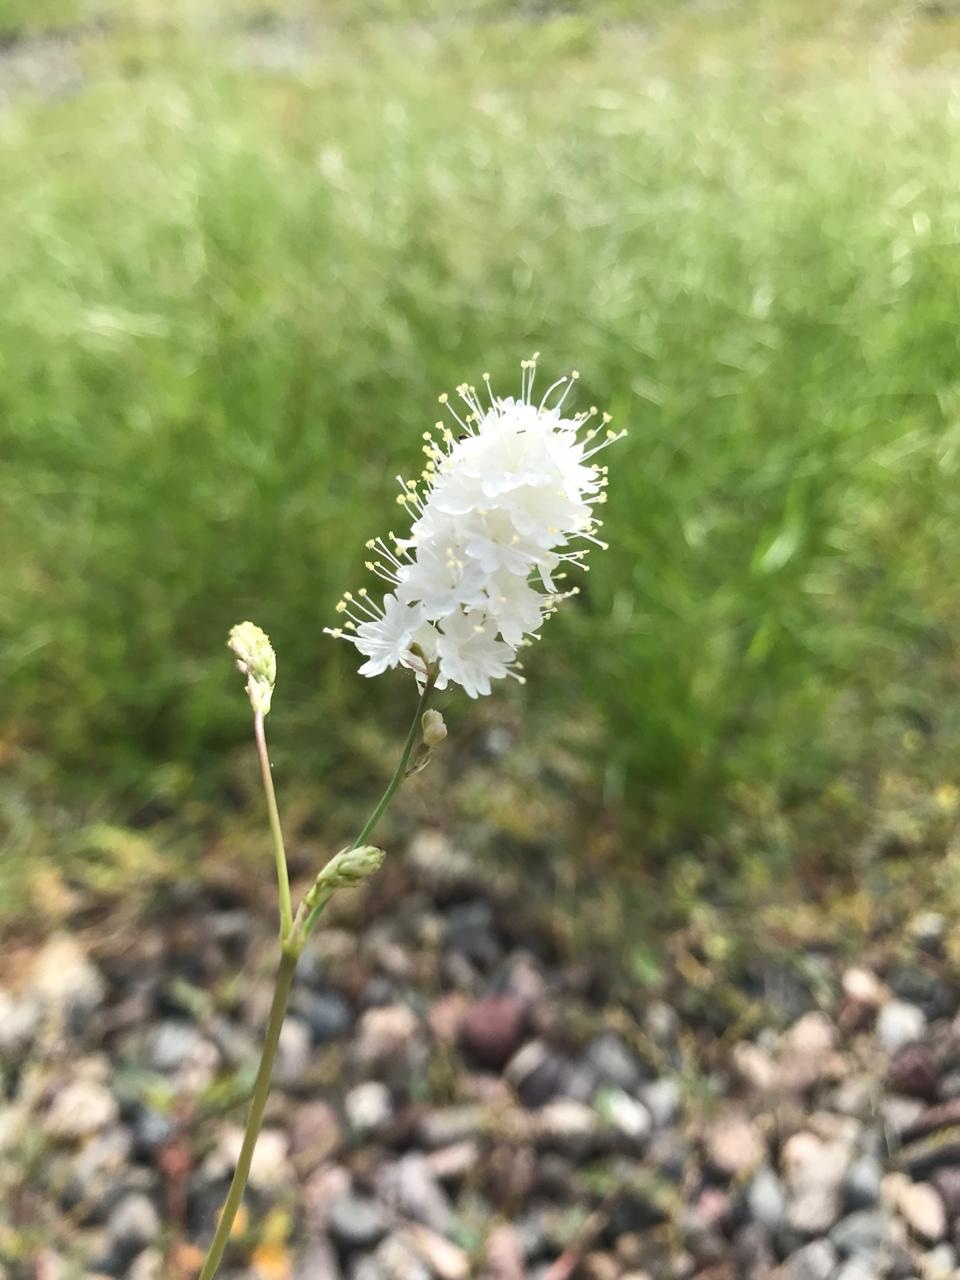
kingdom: Plantae
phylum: Tracheophyta
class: Magnoliopsida
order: Caryophyllales
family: Nyctaginaceae
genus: Boerhavia
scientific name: Boerhavia xantii
